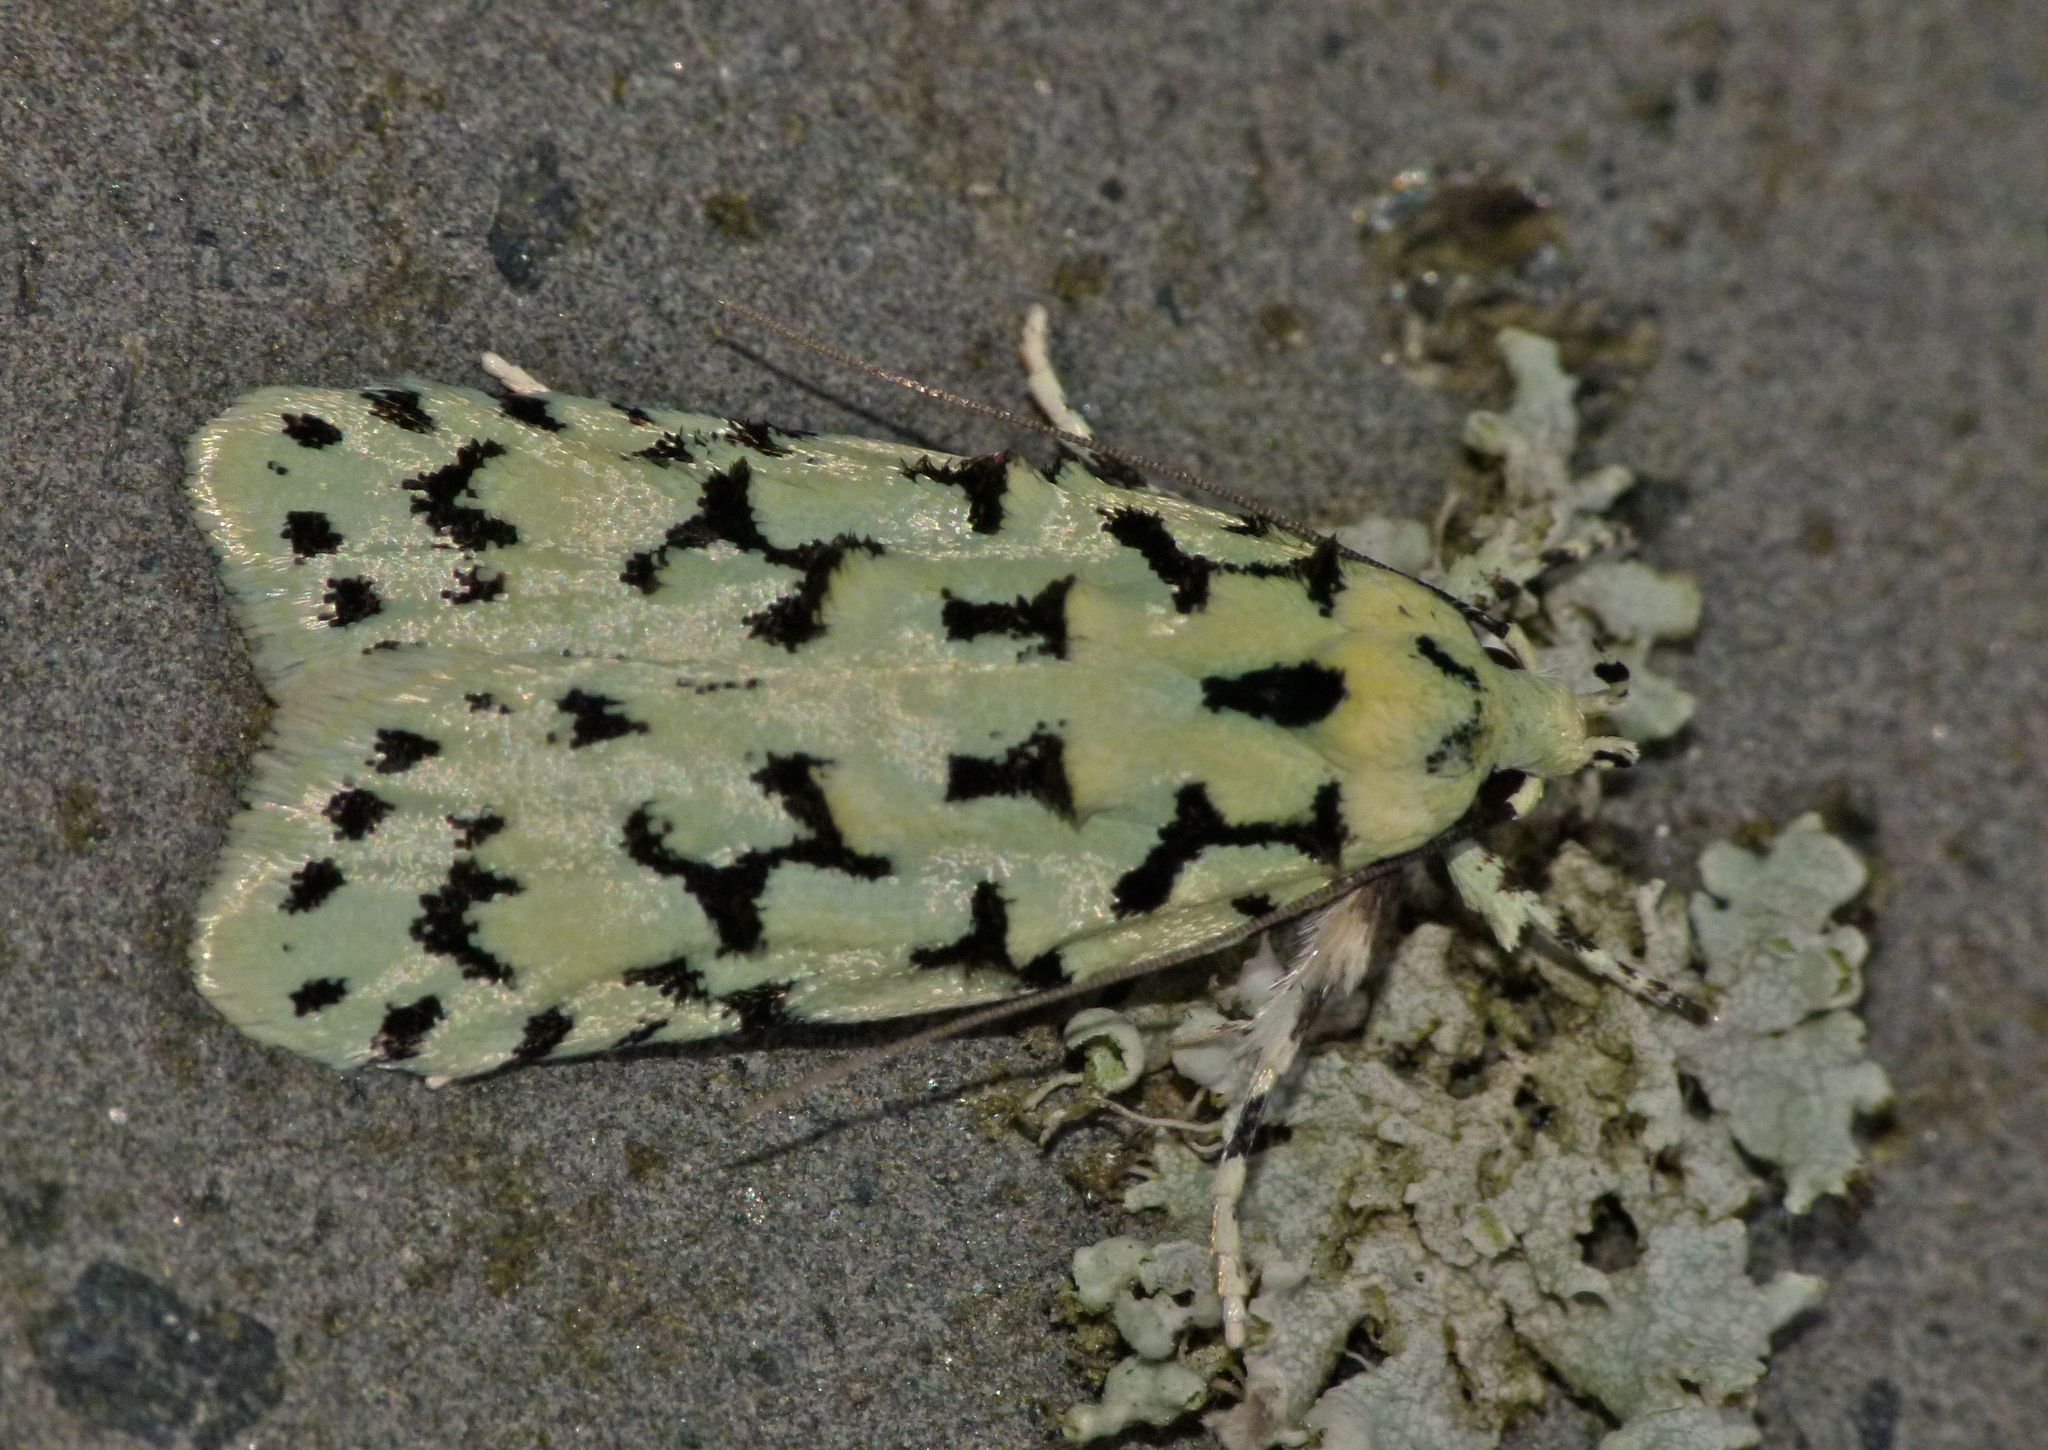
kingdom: Animalia
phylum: Arthropoda
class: Insecta
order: Lepidoptera
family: Oecophoridae
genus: Izatha
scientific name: Izatha huttoni
